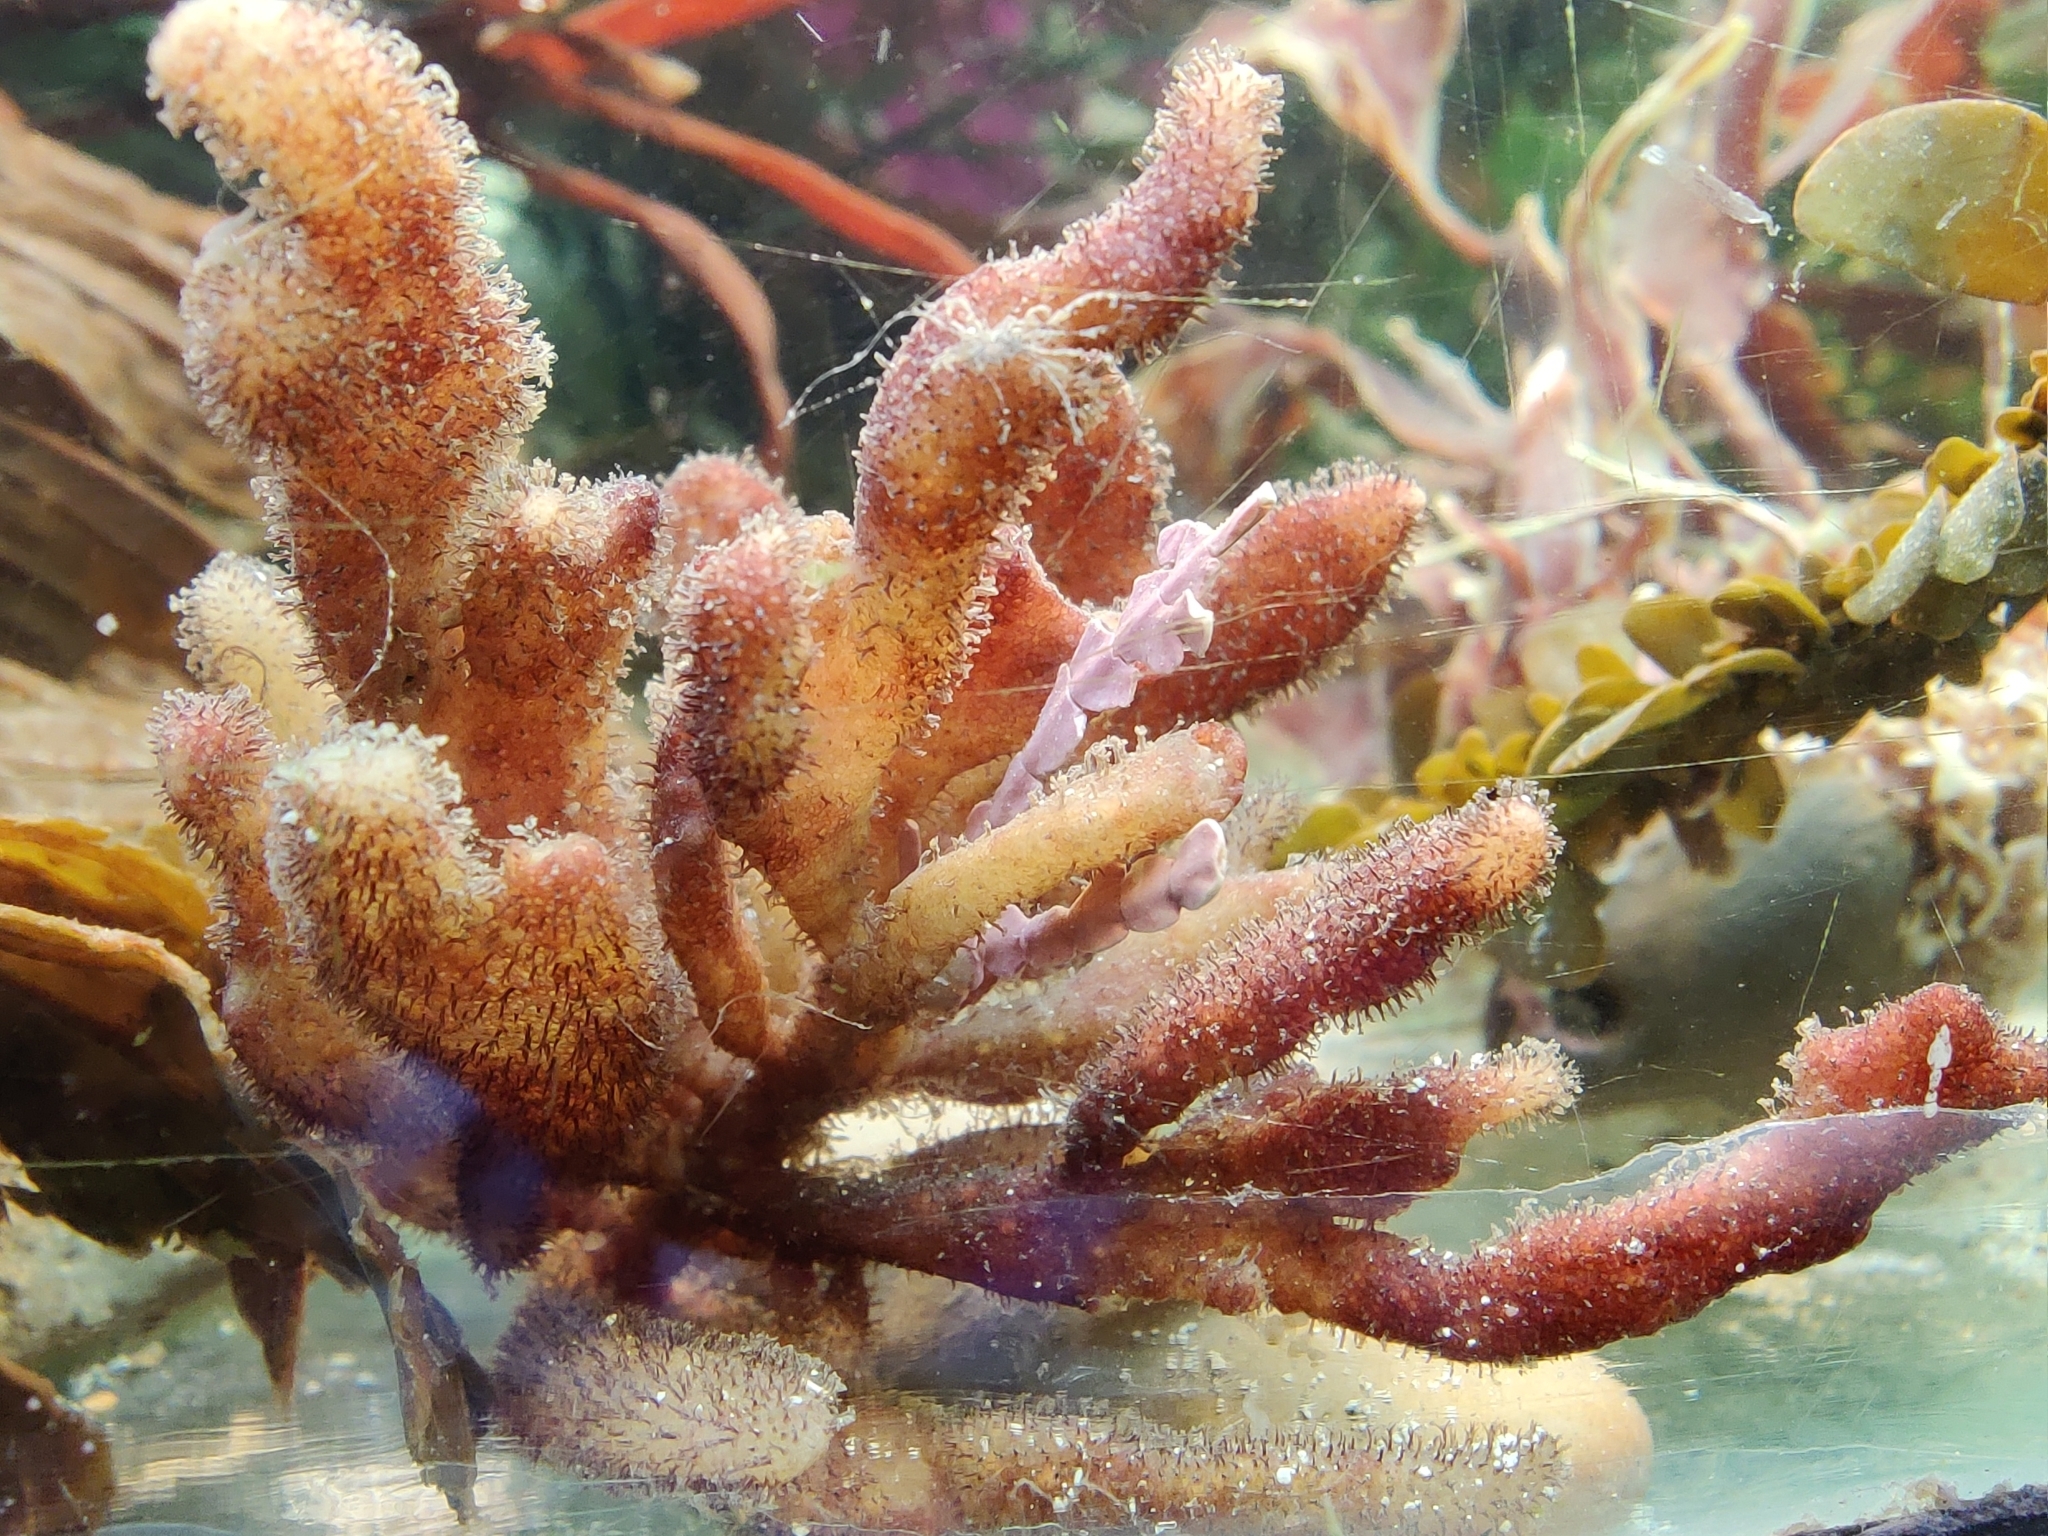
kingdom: Animalia
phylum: Bryozoa
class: Gymnolaemata
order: Ctenostomatida
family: Flustrellidridae
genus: Flustrellidra
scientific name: Flustrellidra spinifera
